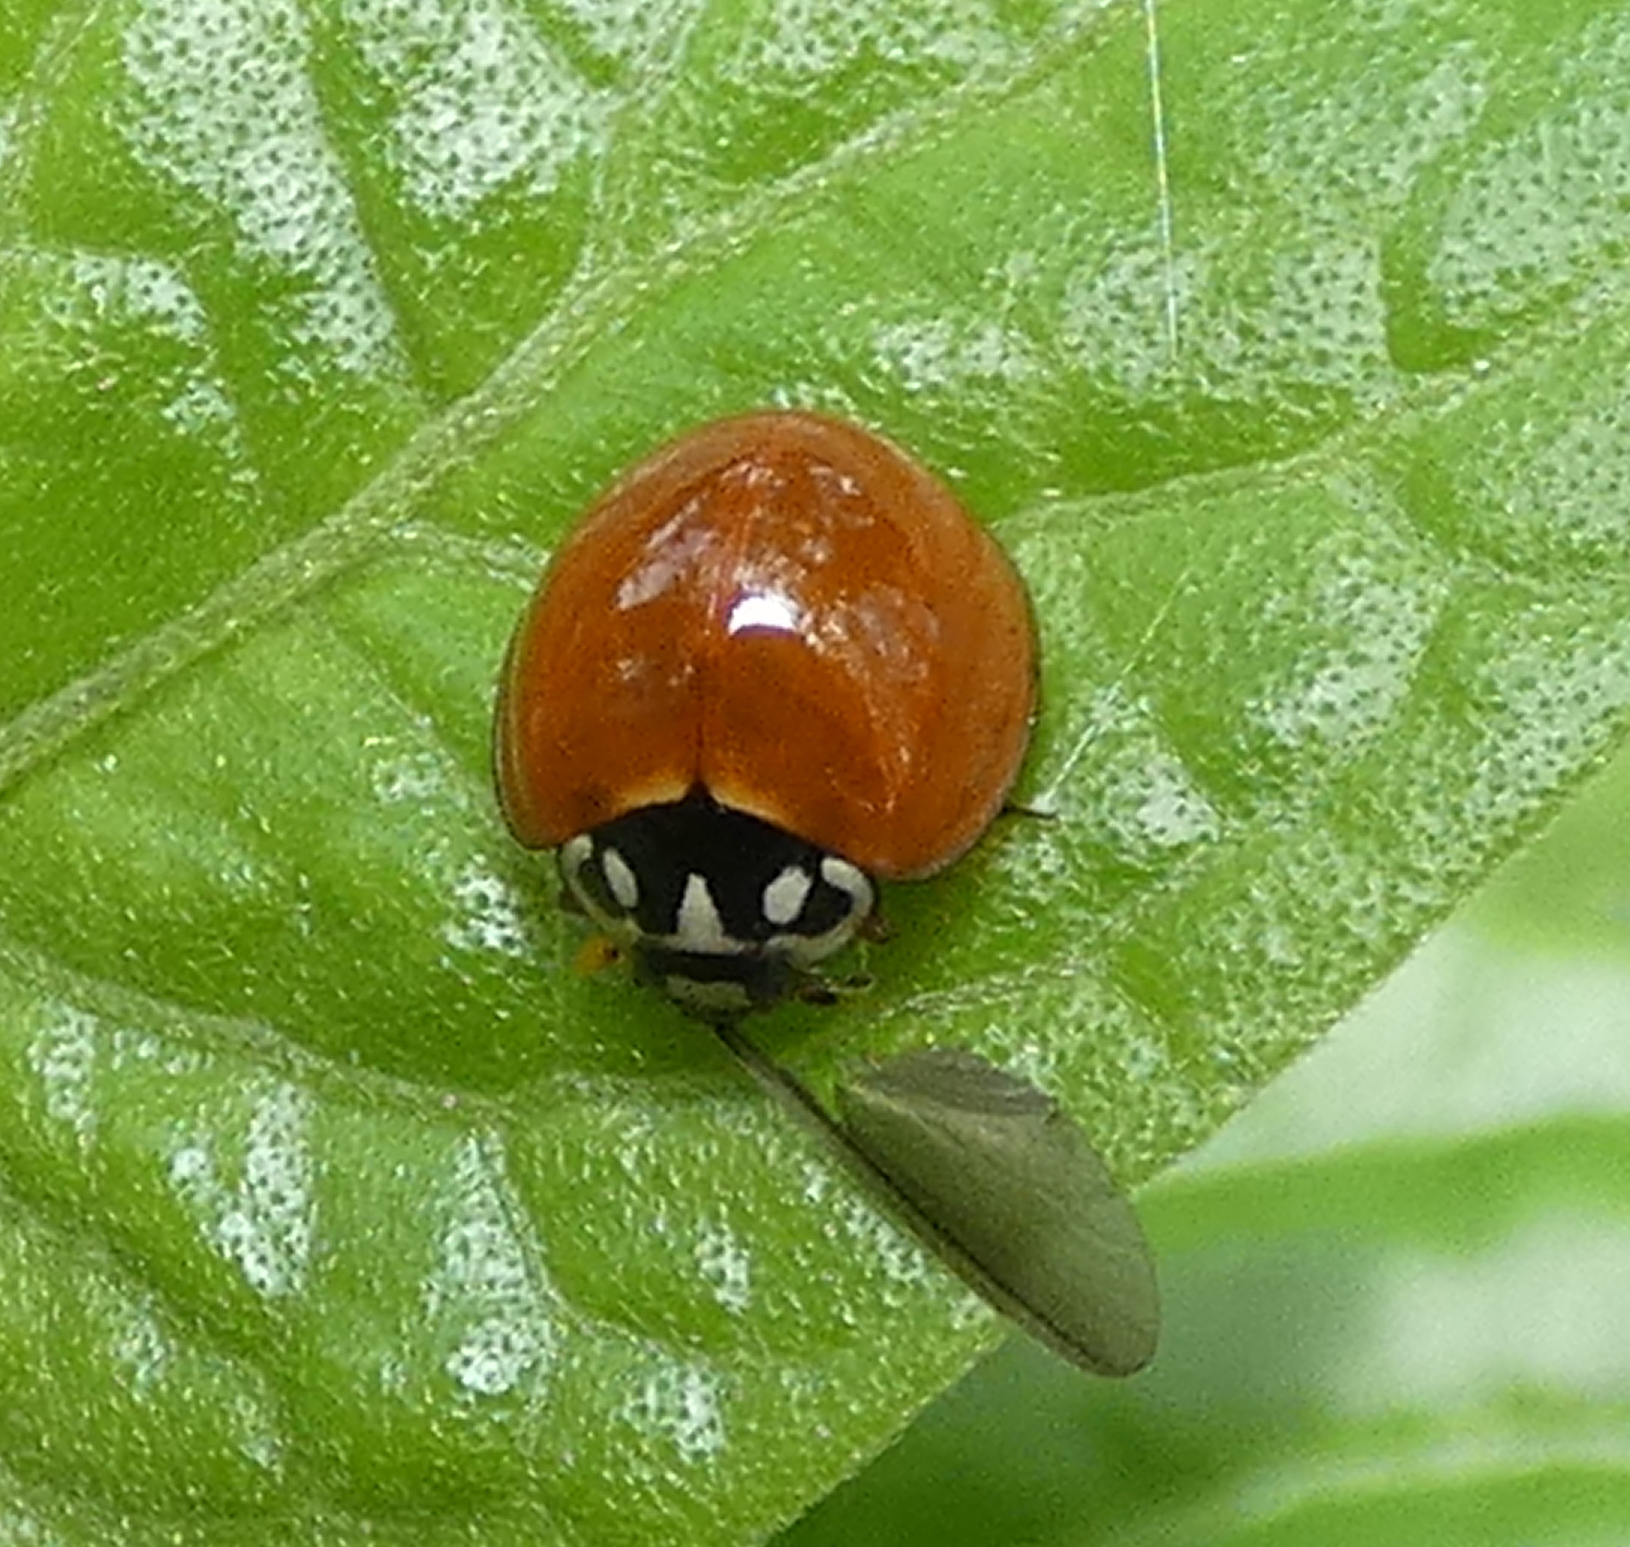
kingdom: Animalia
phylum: Arthropoda
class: Insecta
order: Coleoptera
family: Coccinellidae
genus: Cycloneda
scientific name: Cycloneda sanguinea
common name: Ladybird beetle
